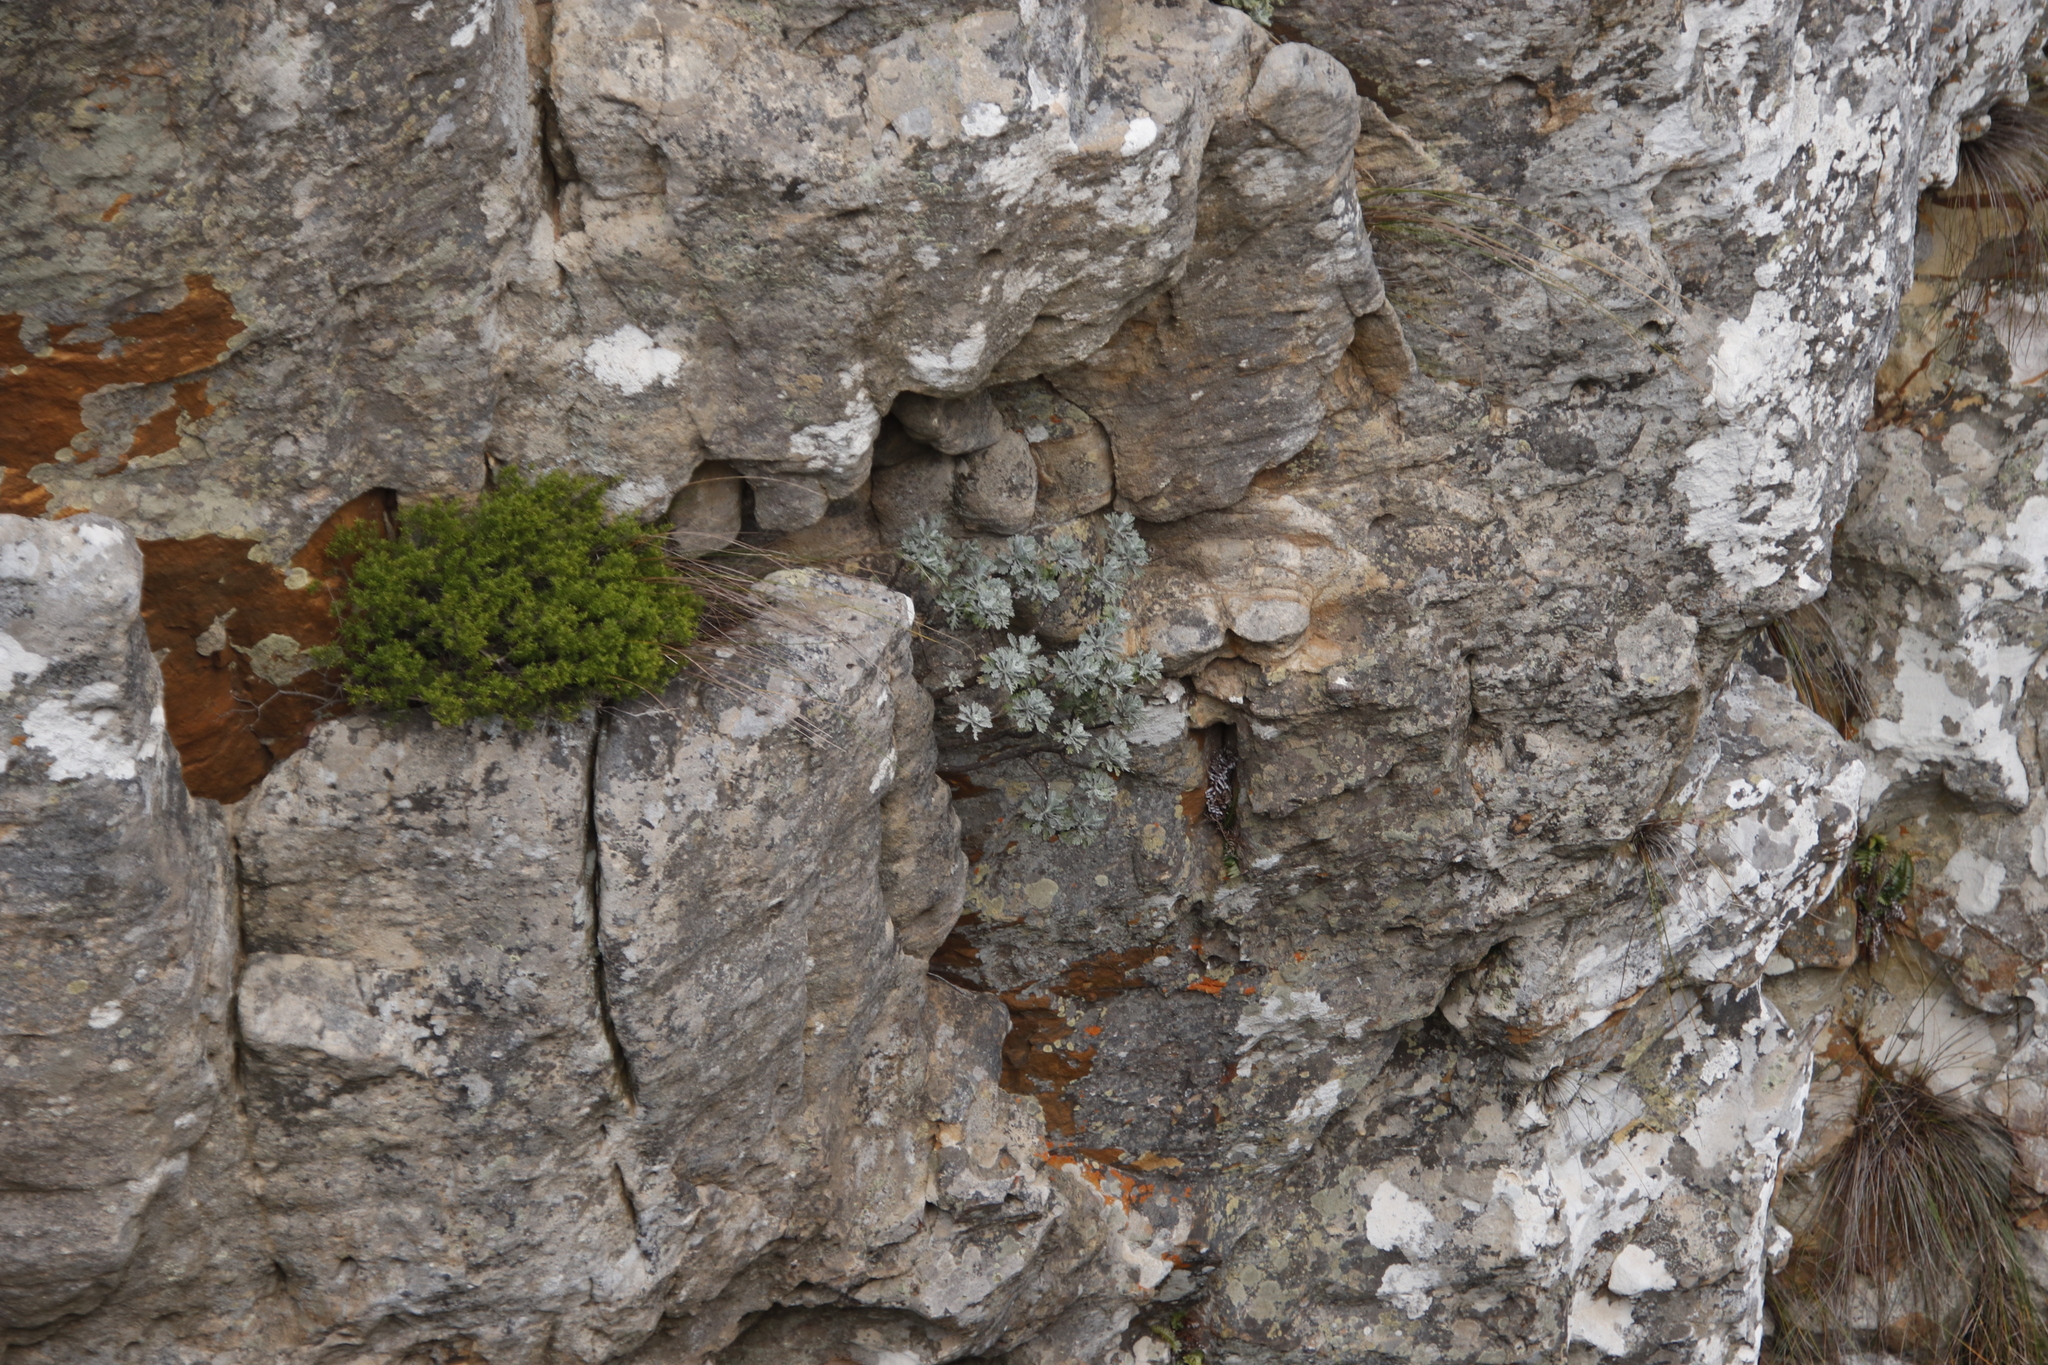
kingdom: Plantae
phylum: Tracheophyta
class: Magnoliopsida
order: Asterales
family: Asteraceae
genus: Euryops
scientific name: Euryops pectinatus
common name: Gray-leaf euryops
